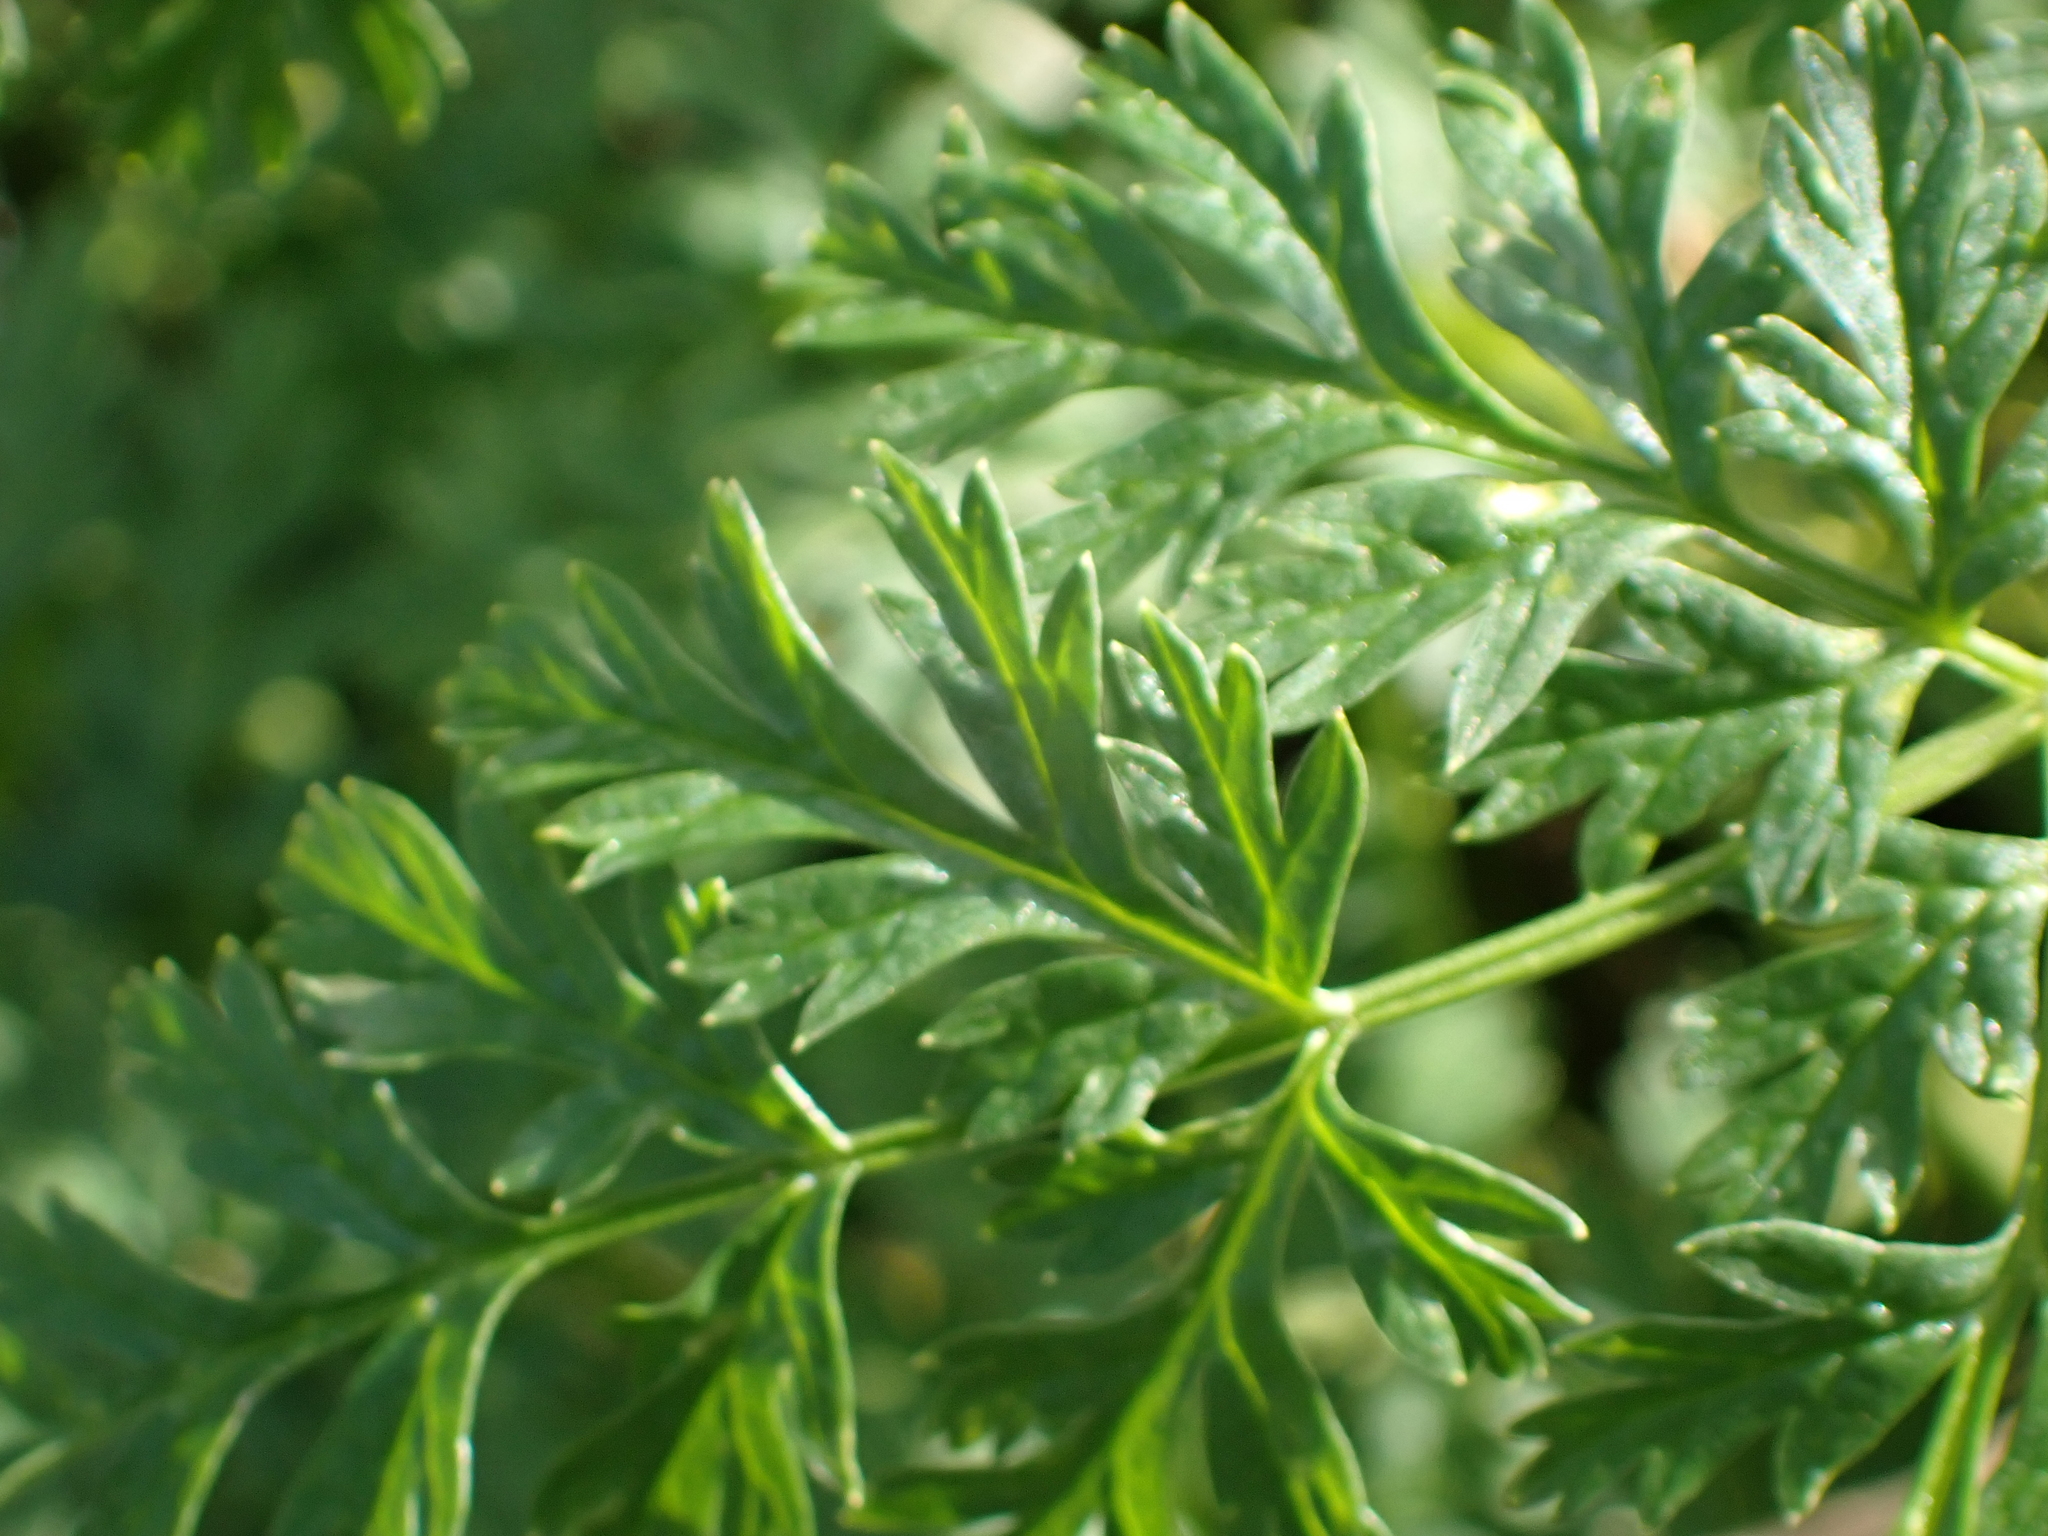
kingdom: Plantae
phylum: Tracheophyta
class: Magnoliopsida
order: Apiales
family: Apiaceae
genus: Conium
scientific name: Conium maculatum
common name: Hemlock
